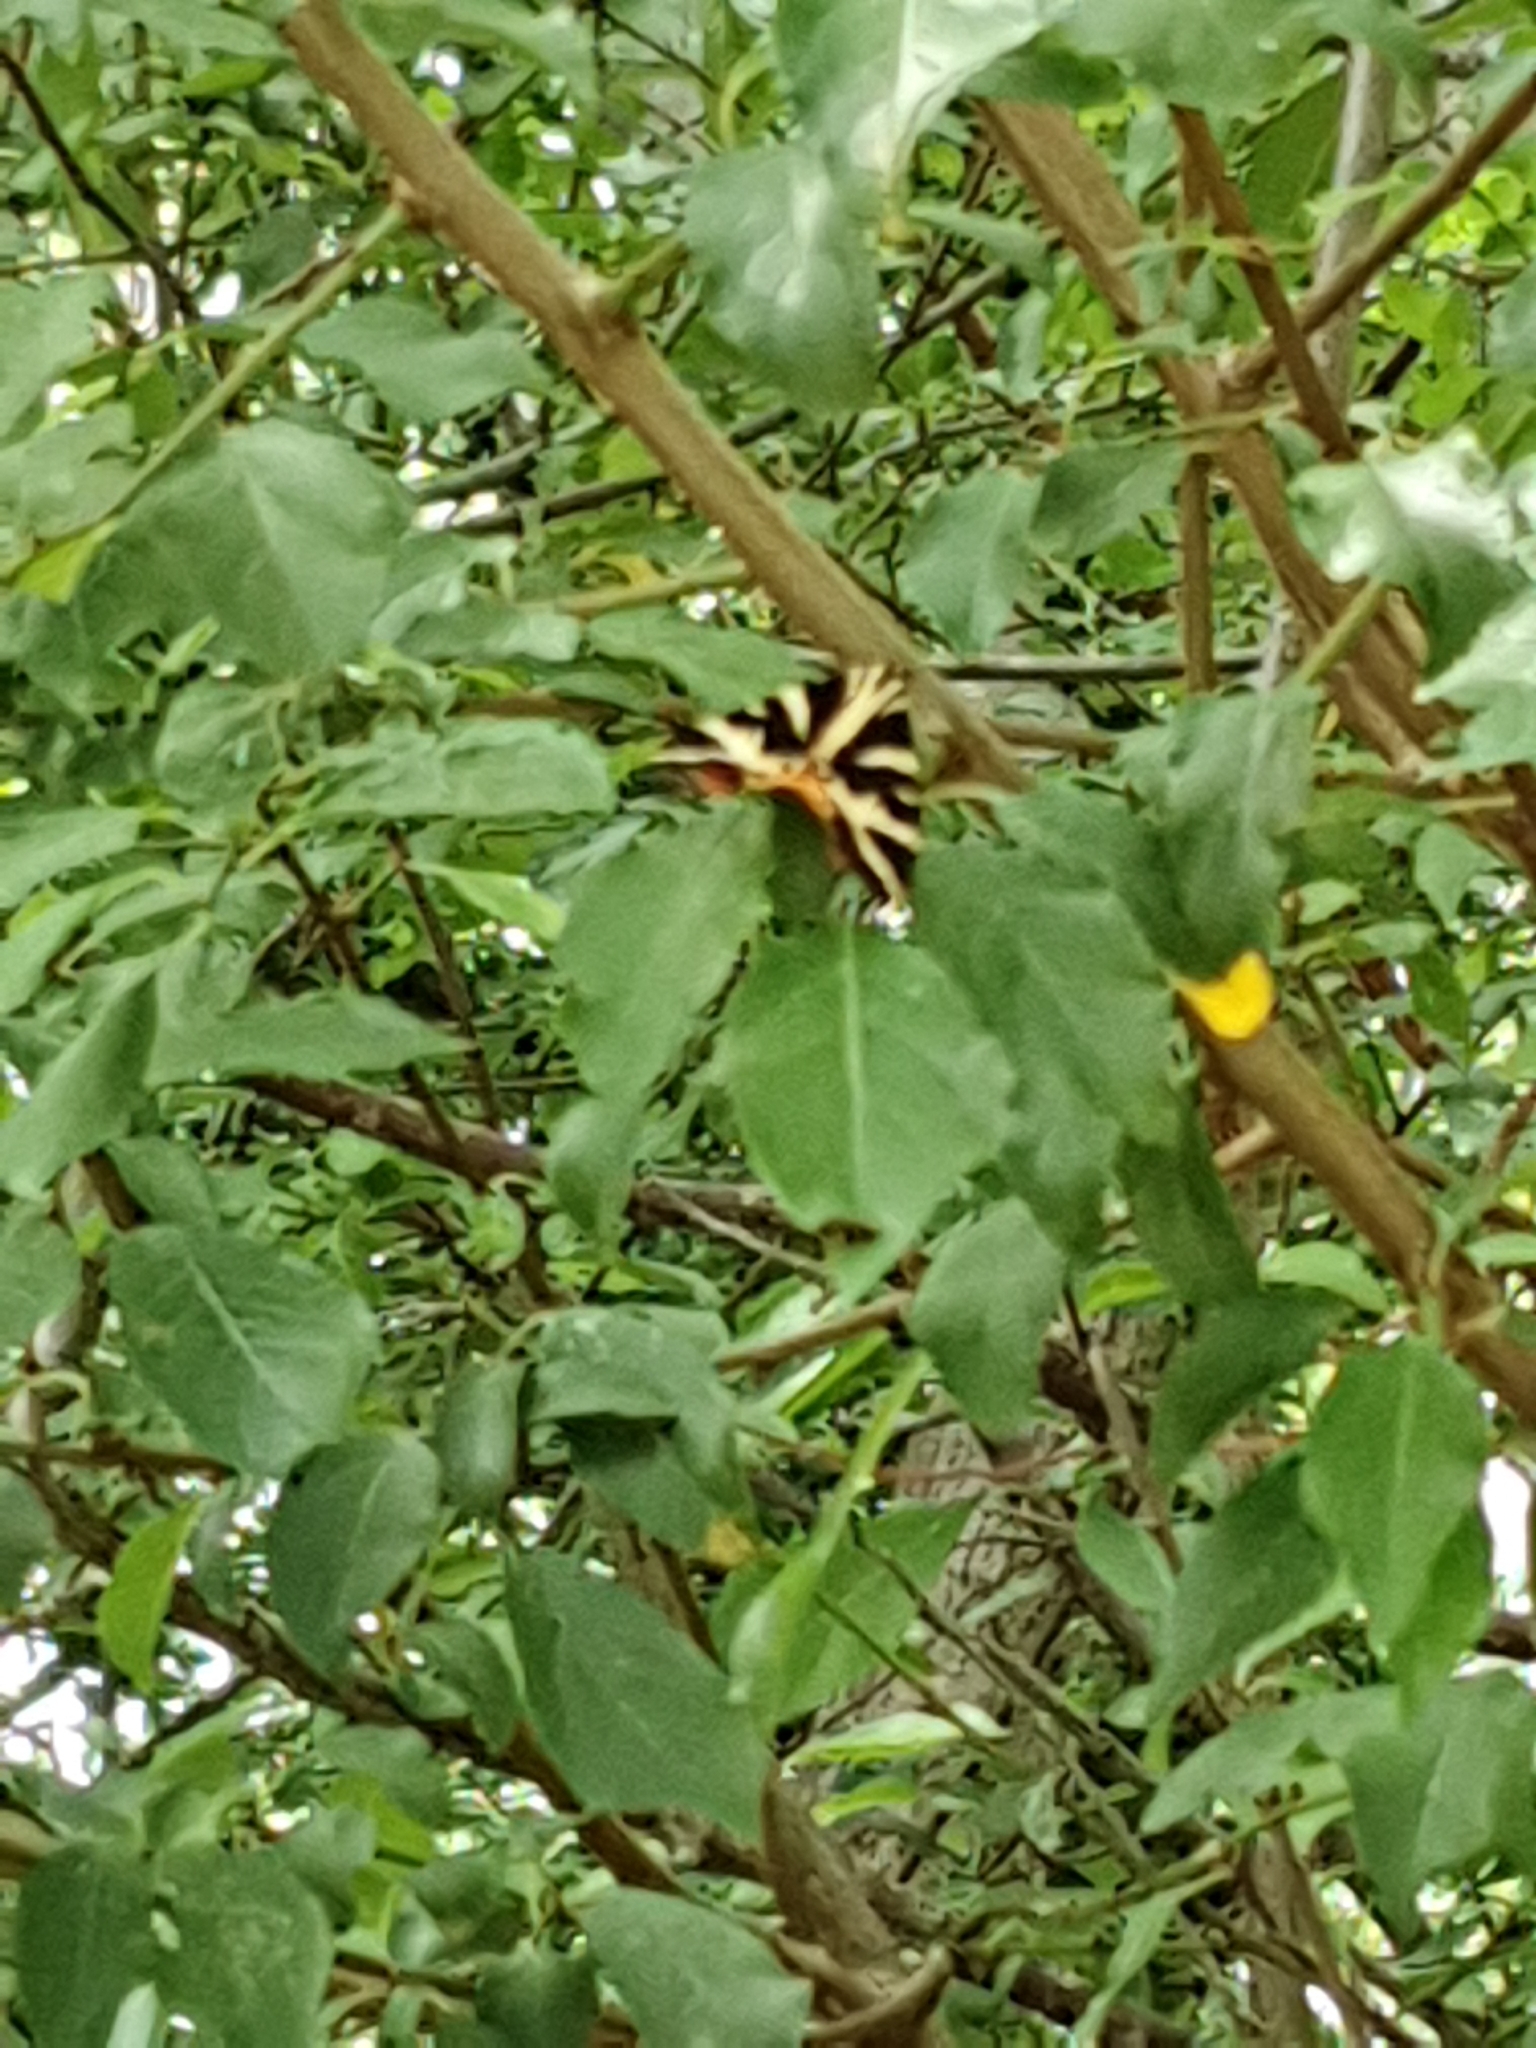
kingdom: Animalia
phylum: Arthropoda
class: Insecta
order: Lepidoptera
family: Erebidae
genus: Euplagia
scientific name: Euplagia quadripunctaria
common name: Jersey tiger
